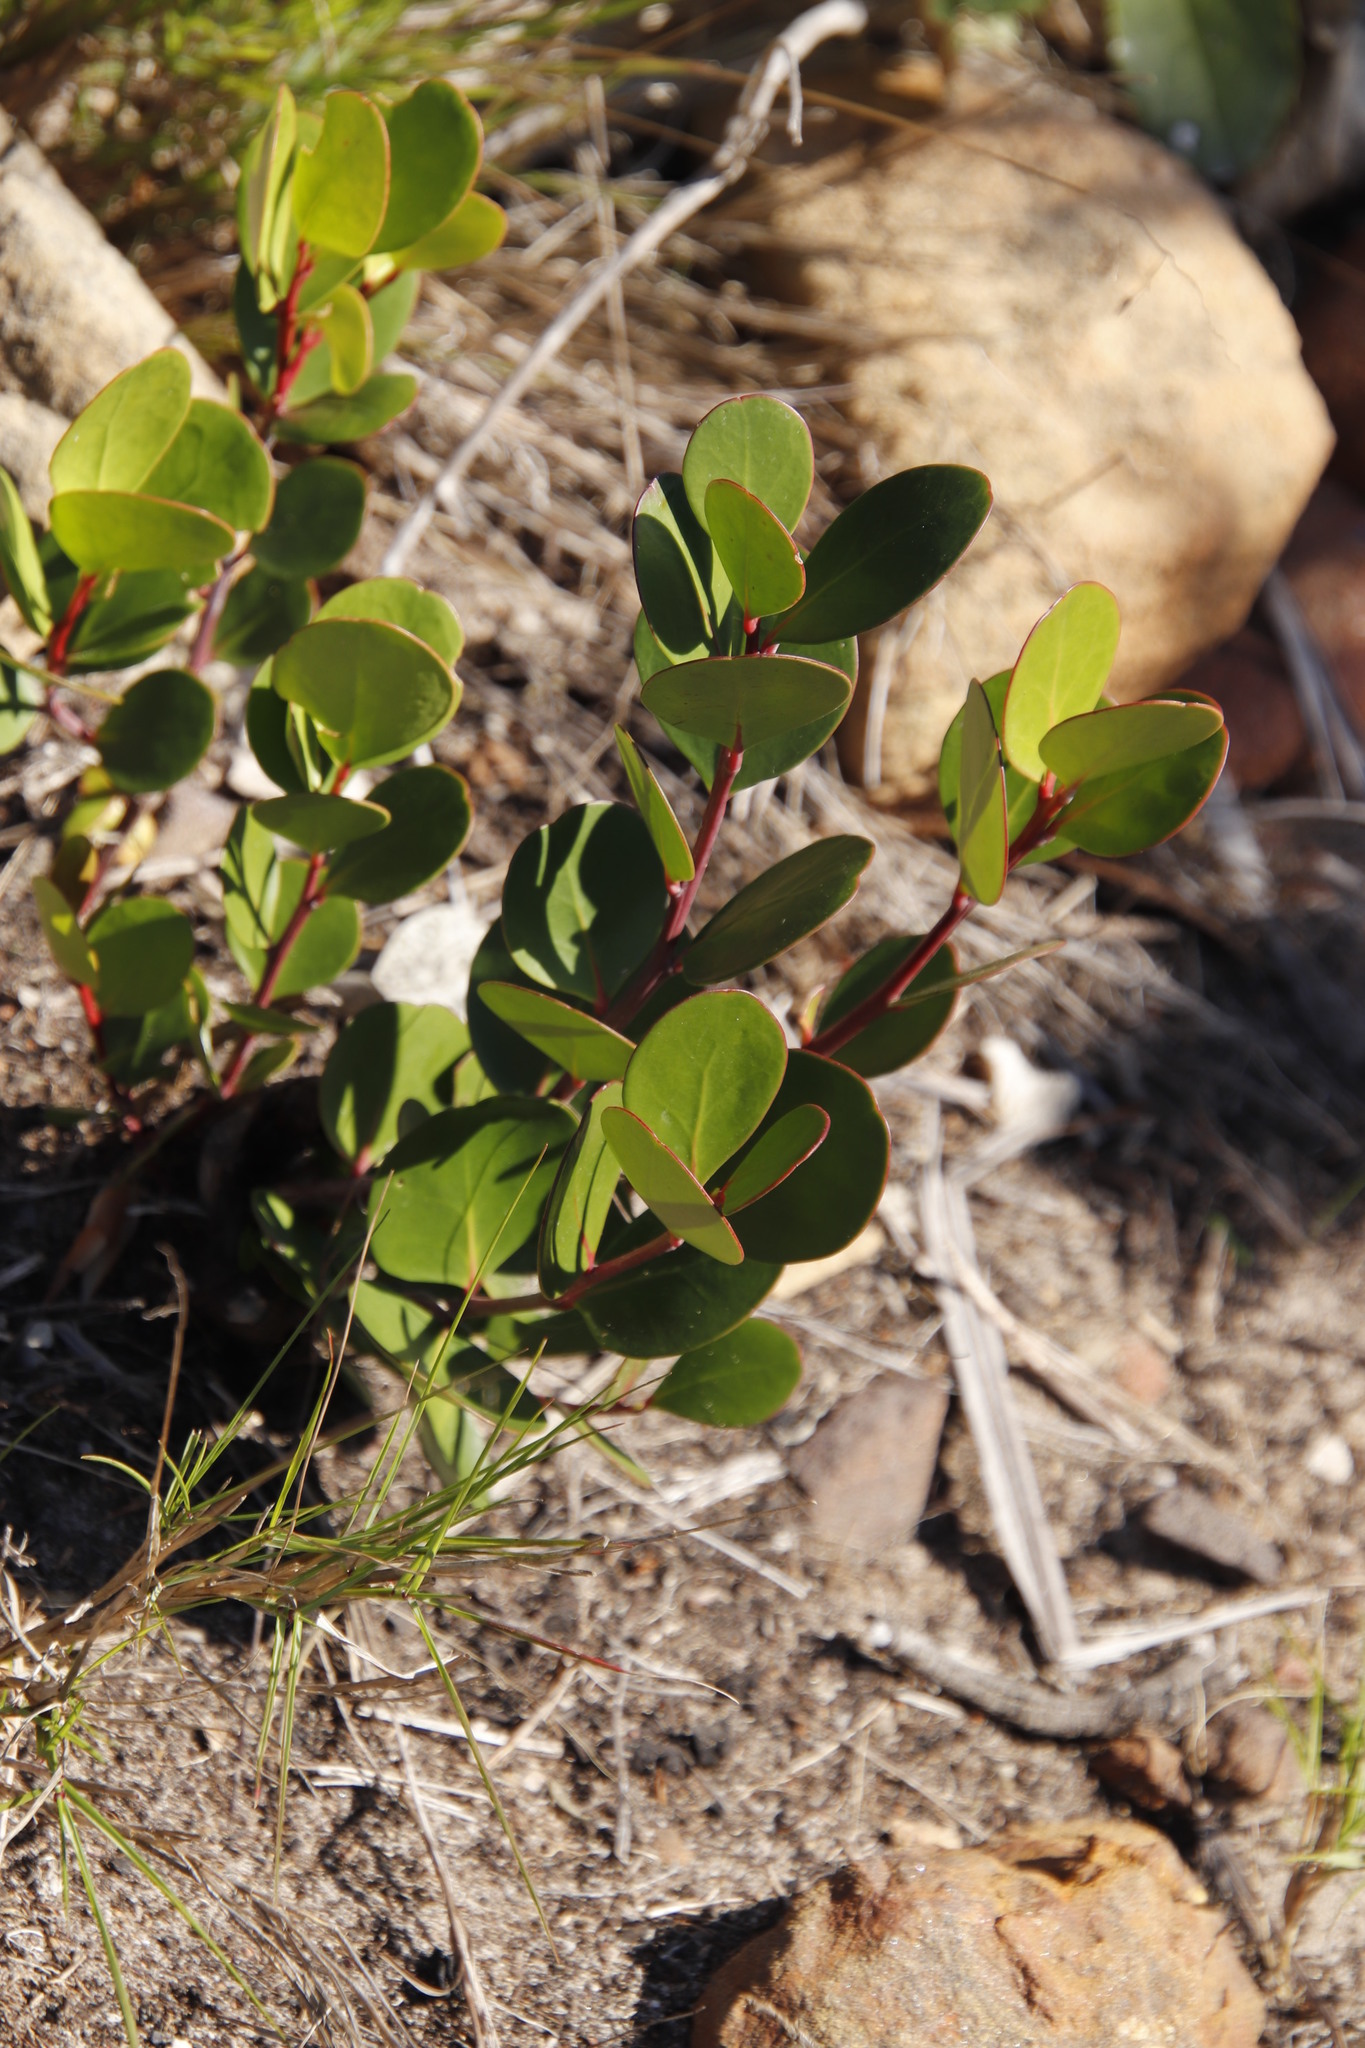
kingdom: Plantae
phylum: Tracheophyta
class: Magnoliopsida
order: Celastrales
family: Celastraceae
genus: Pterocelastrus
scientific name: Pterocelastrus tricuspidatus
